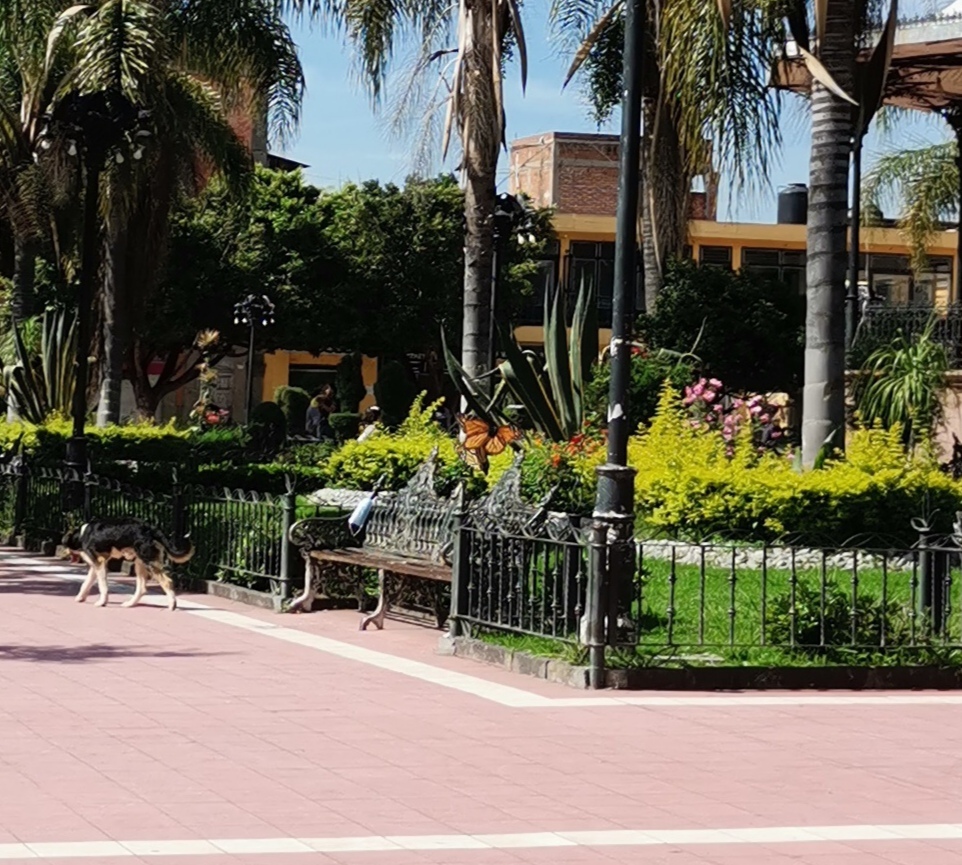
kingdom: Animalia
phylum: Arthropoda
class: Insecta
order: Lepidoptera
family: Nymphalidae
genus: Danaus
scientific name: Danaus plexippus
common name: Monarch
